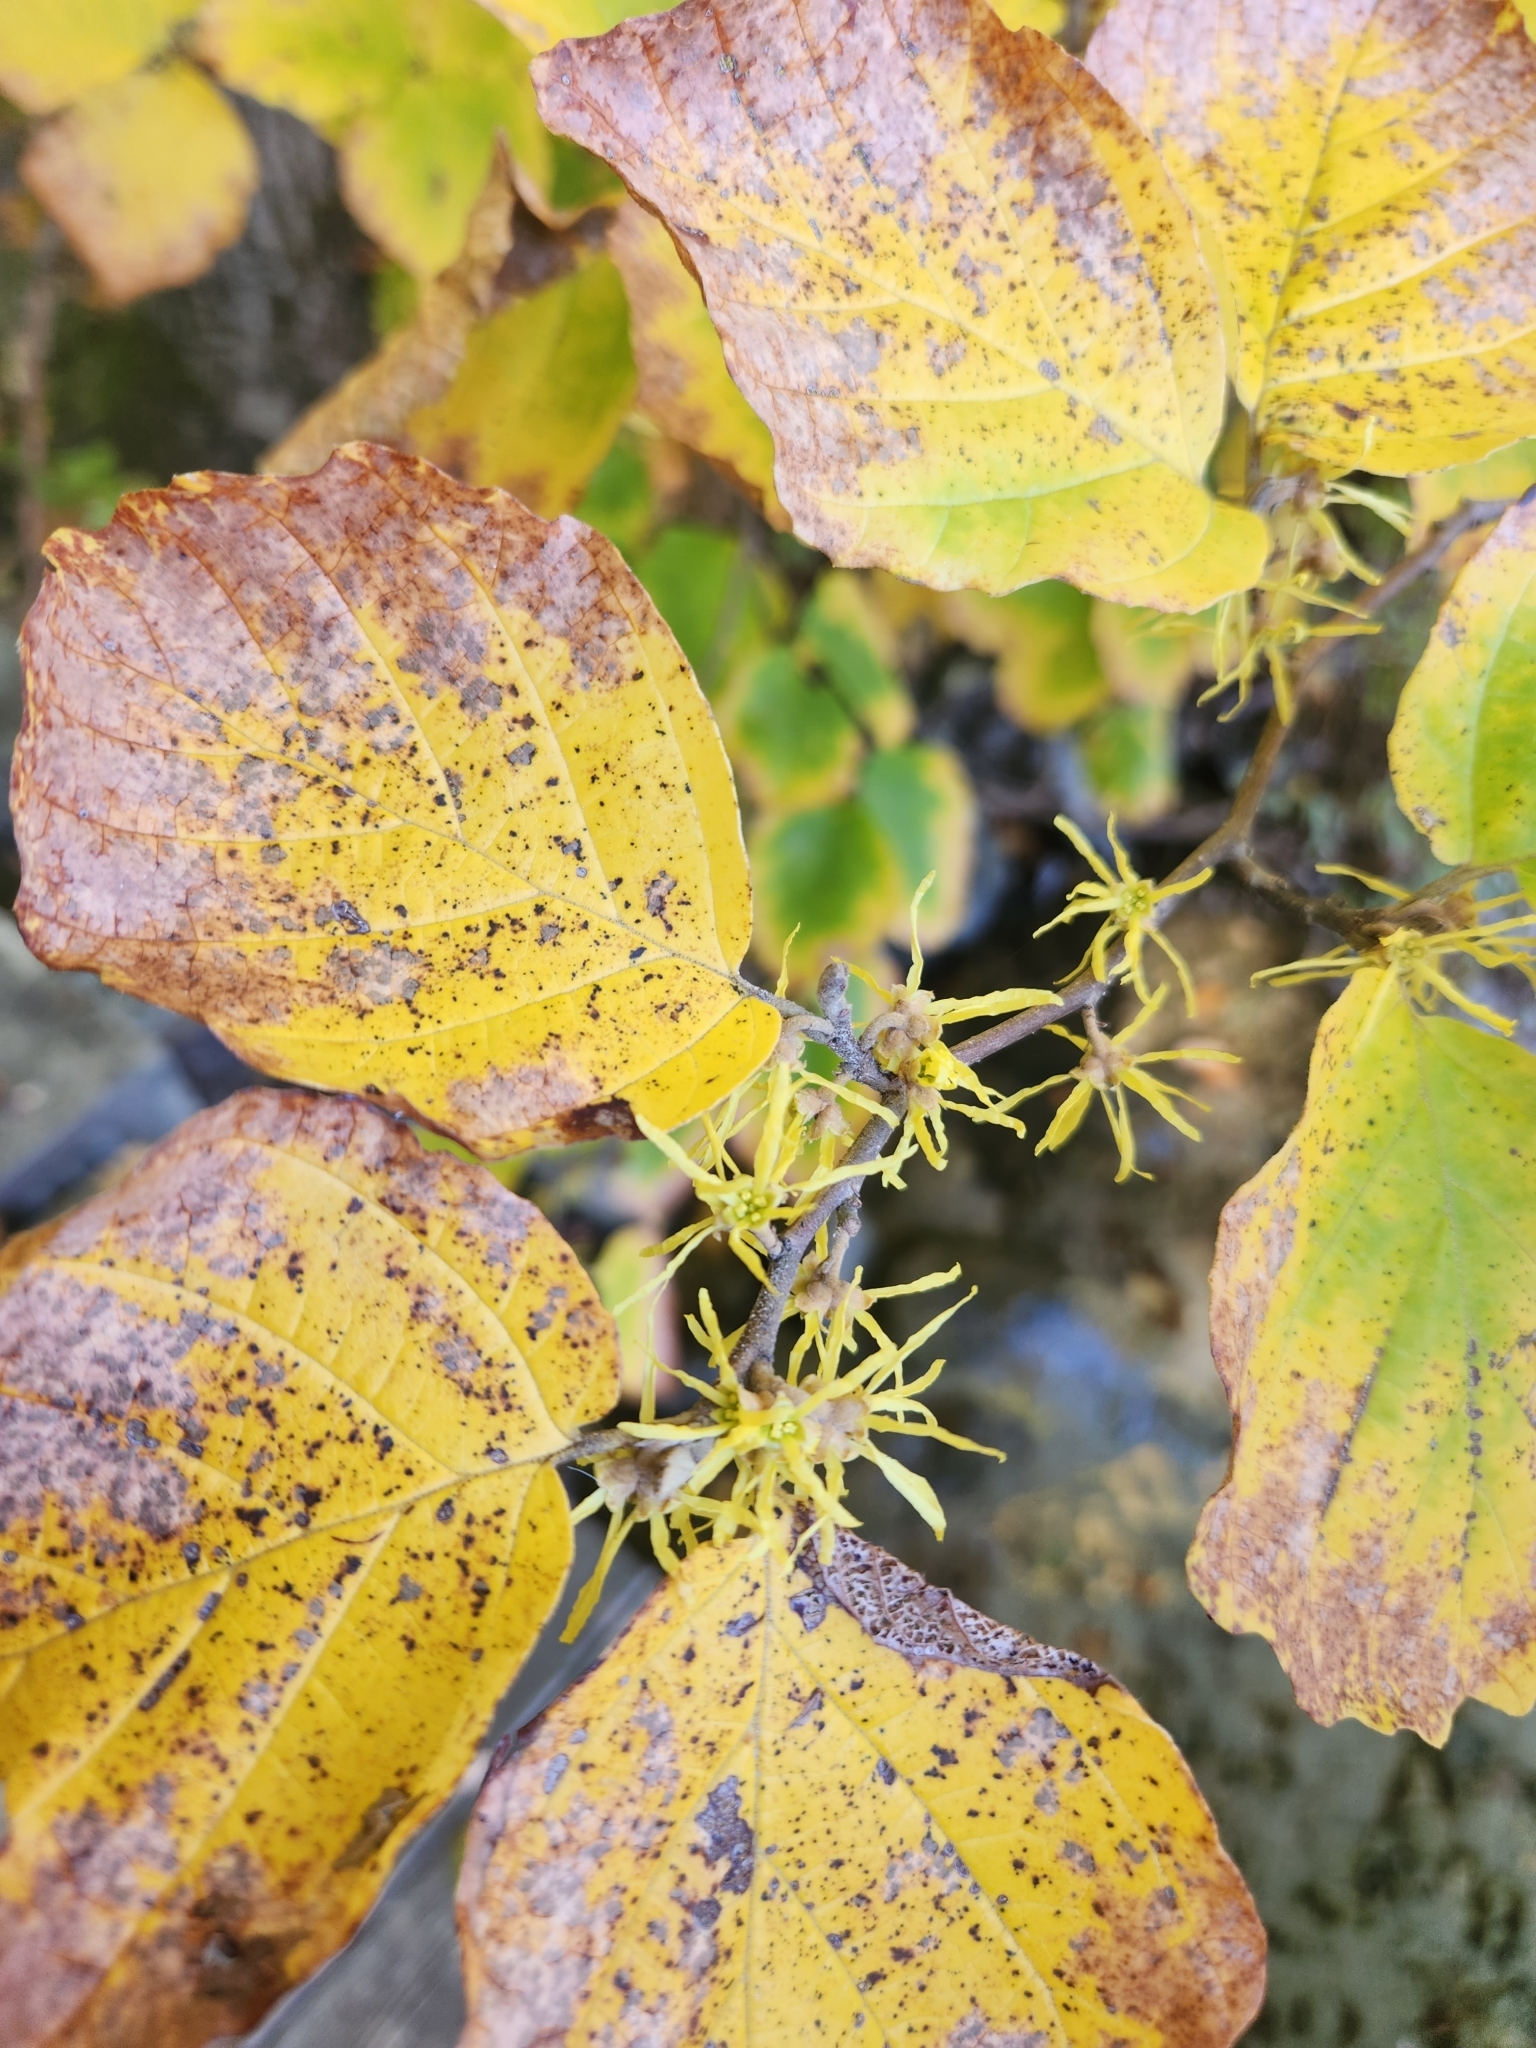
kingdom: Plantae
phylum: Tracheophyta
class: Magnoliopsida
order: Saxifragales
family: Hamamelidaceae
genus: Hamamelis
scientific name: Hamamelis virginiana
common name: Witch-hazel
